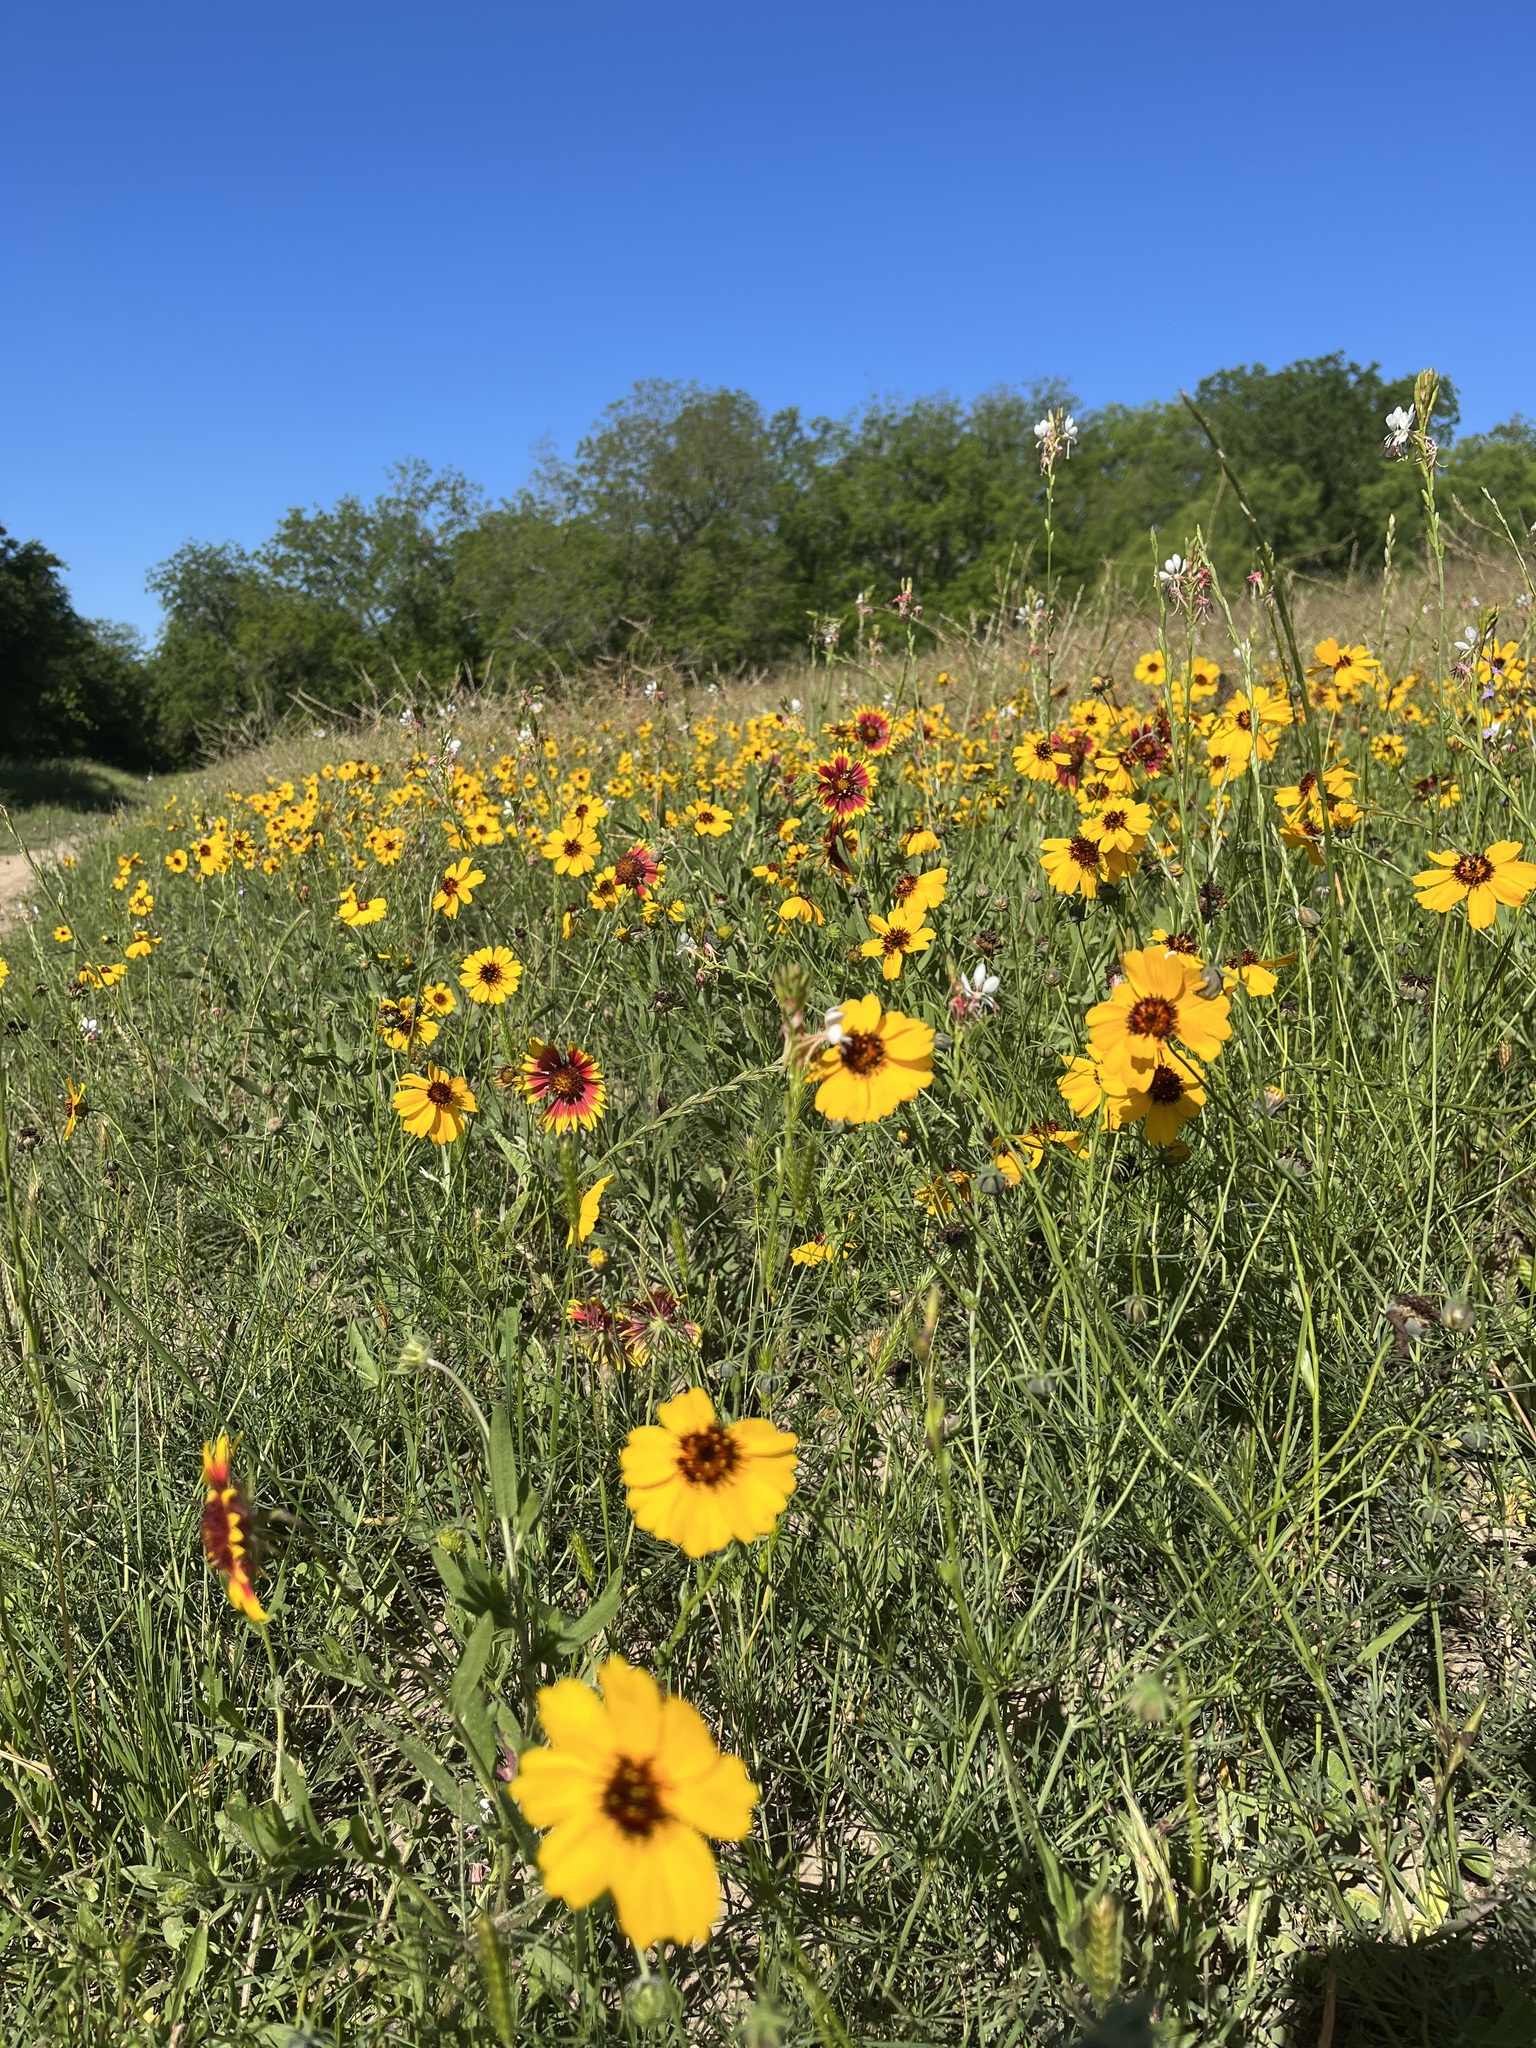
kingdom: Plantae
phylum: Tracheophyta
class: Magnoliopsida
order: Asterales
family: Asteraceae
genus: Thelesperma
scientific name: Thelesperma filifolium
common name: Stiff greenthread
